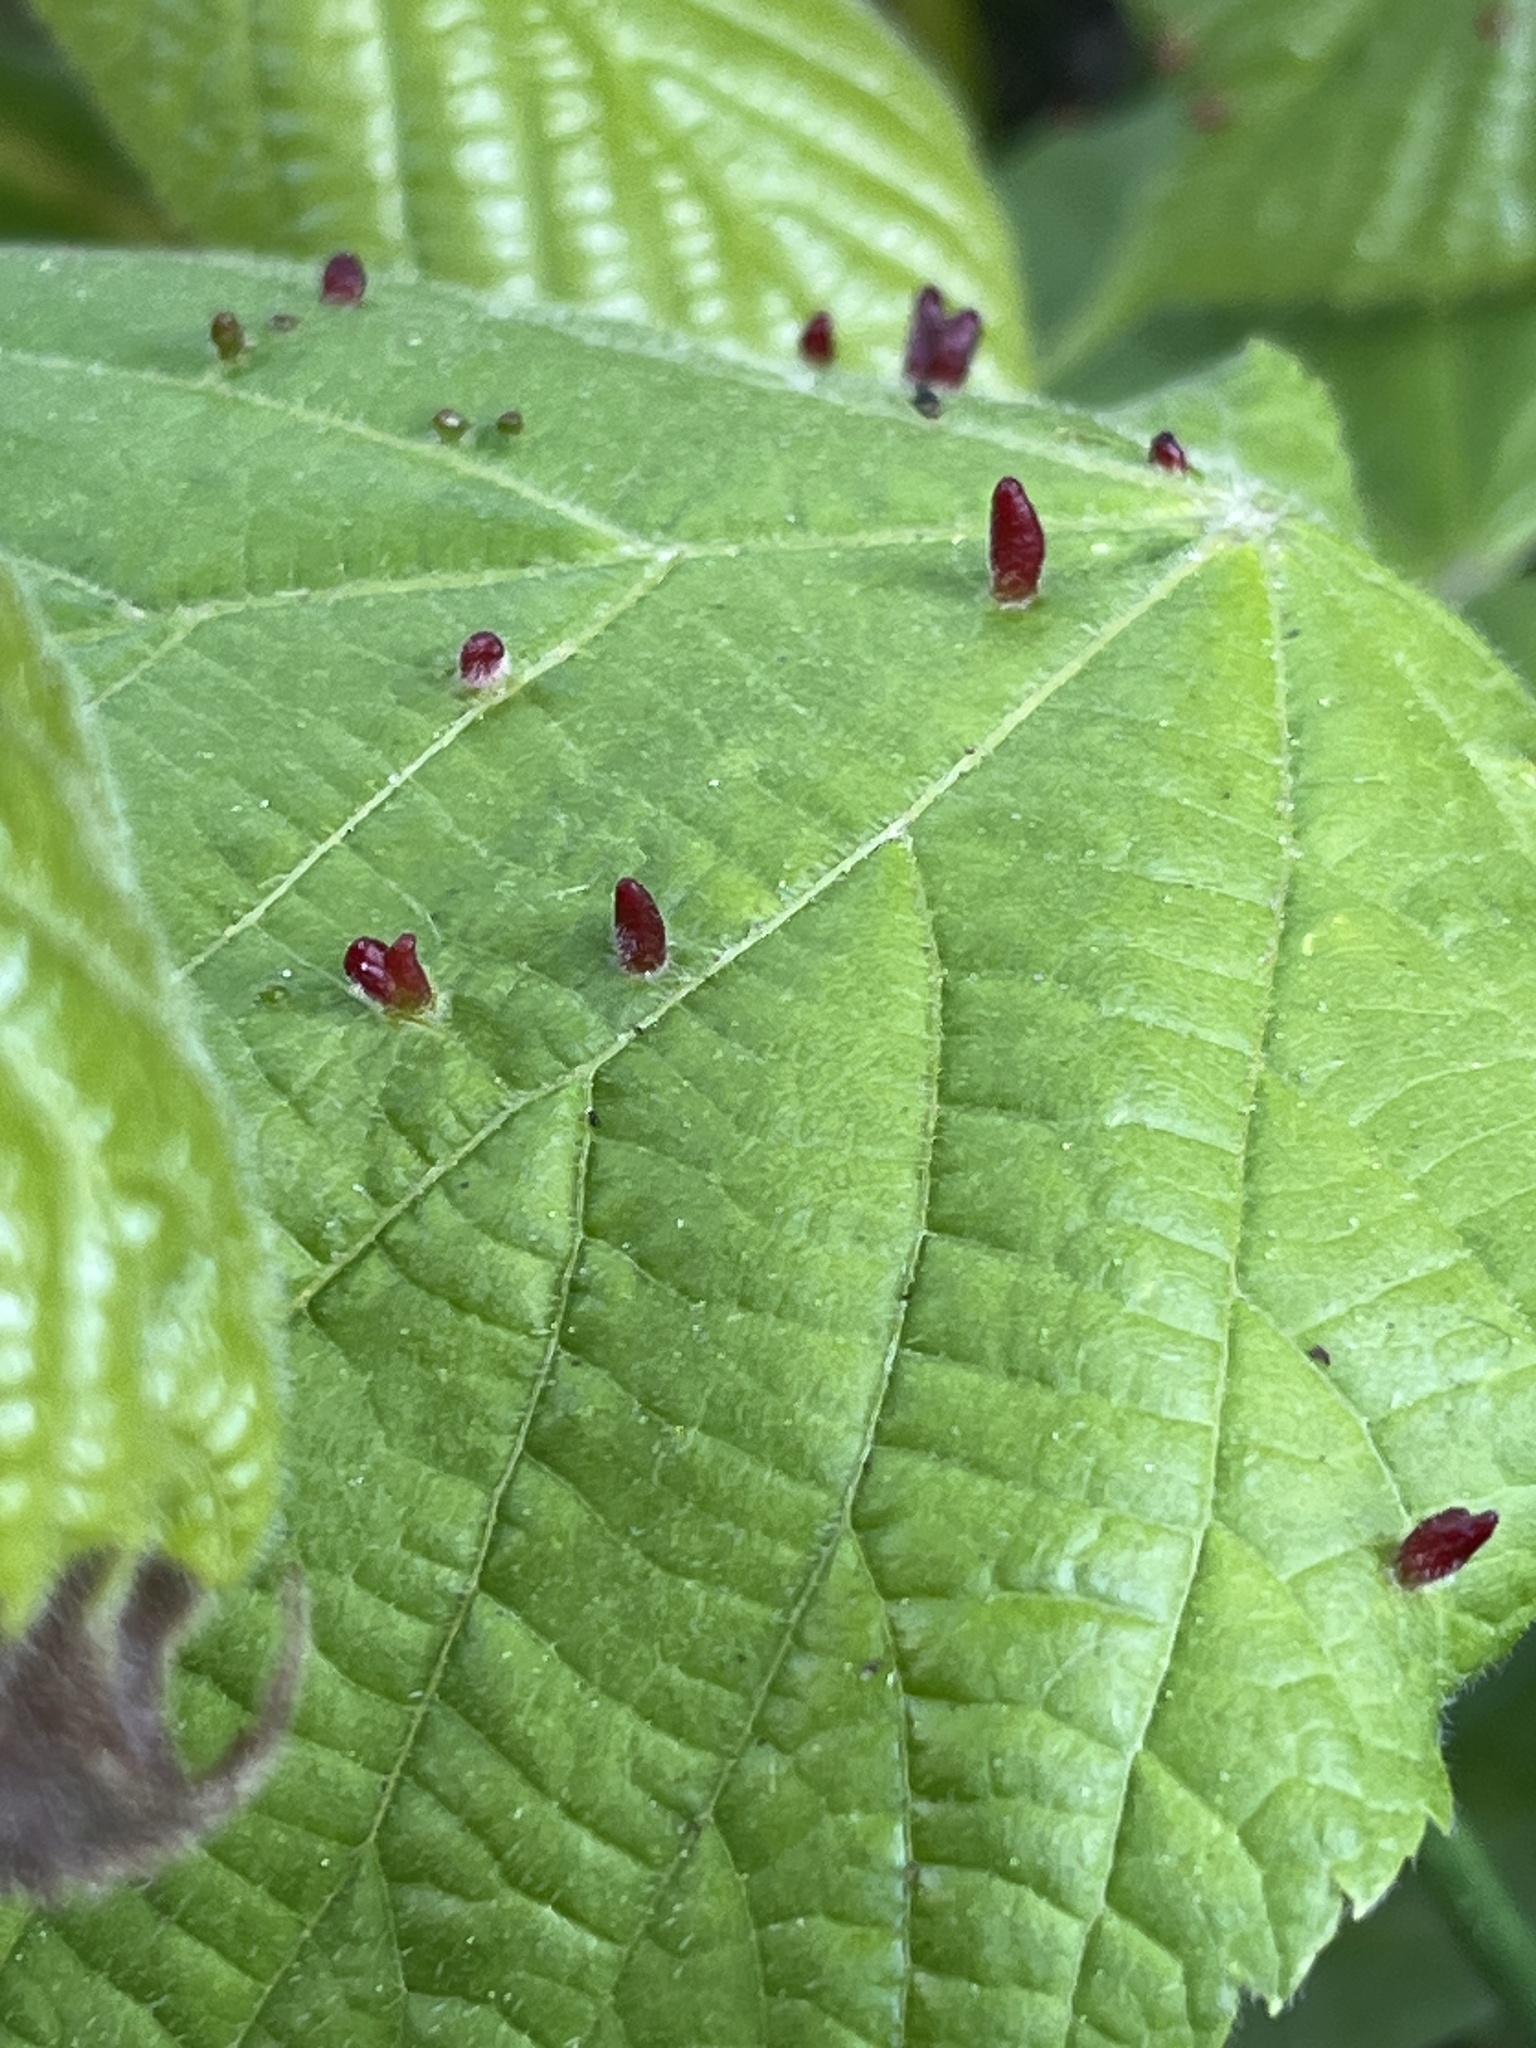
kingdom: Animalia
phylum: Arthropoda
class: Arachnida
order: Trombidiformes
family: Eriophyidae
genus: Eriophyes
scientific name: Eriophyes tiliae
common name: Red nail gall mite
